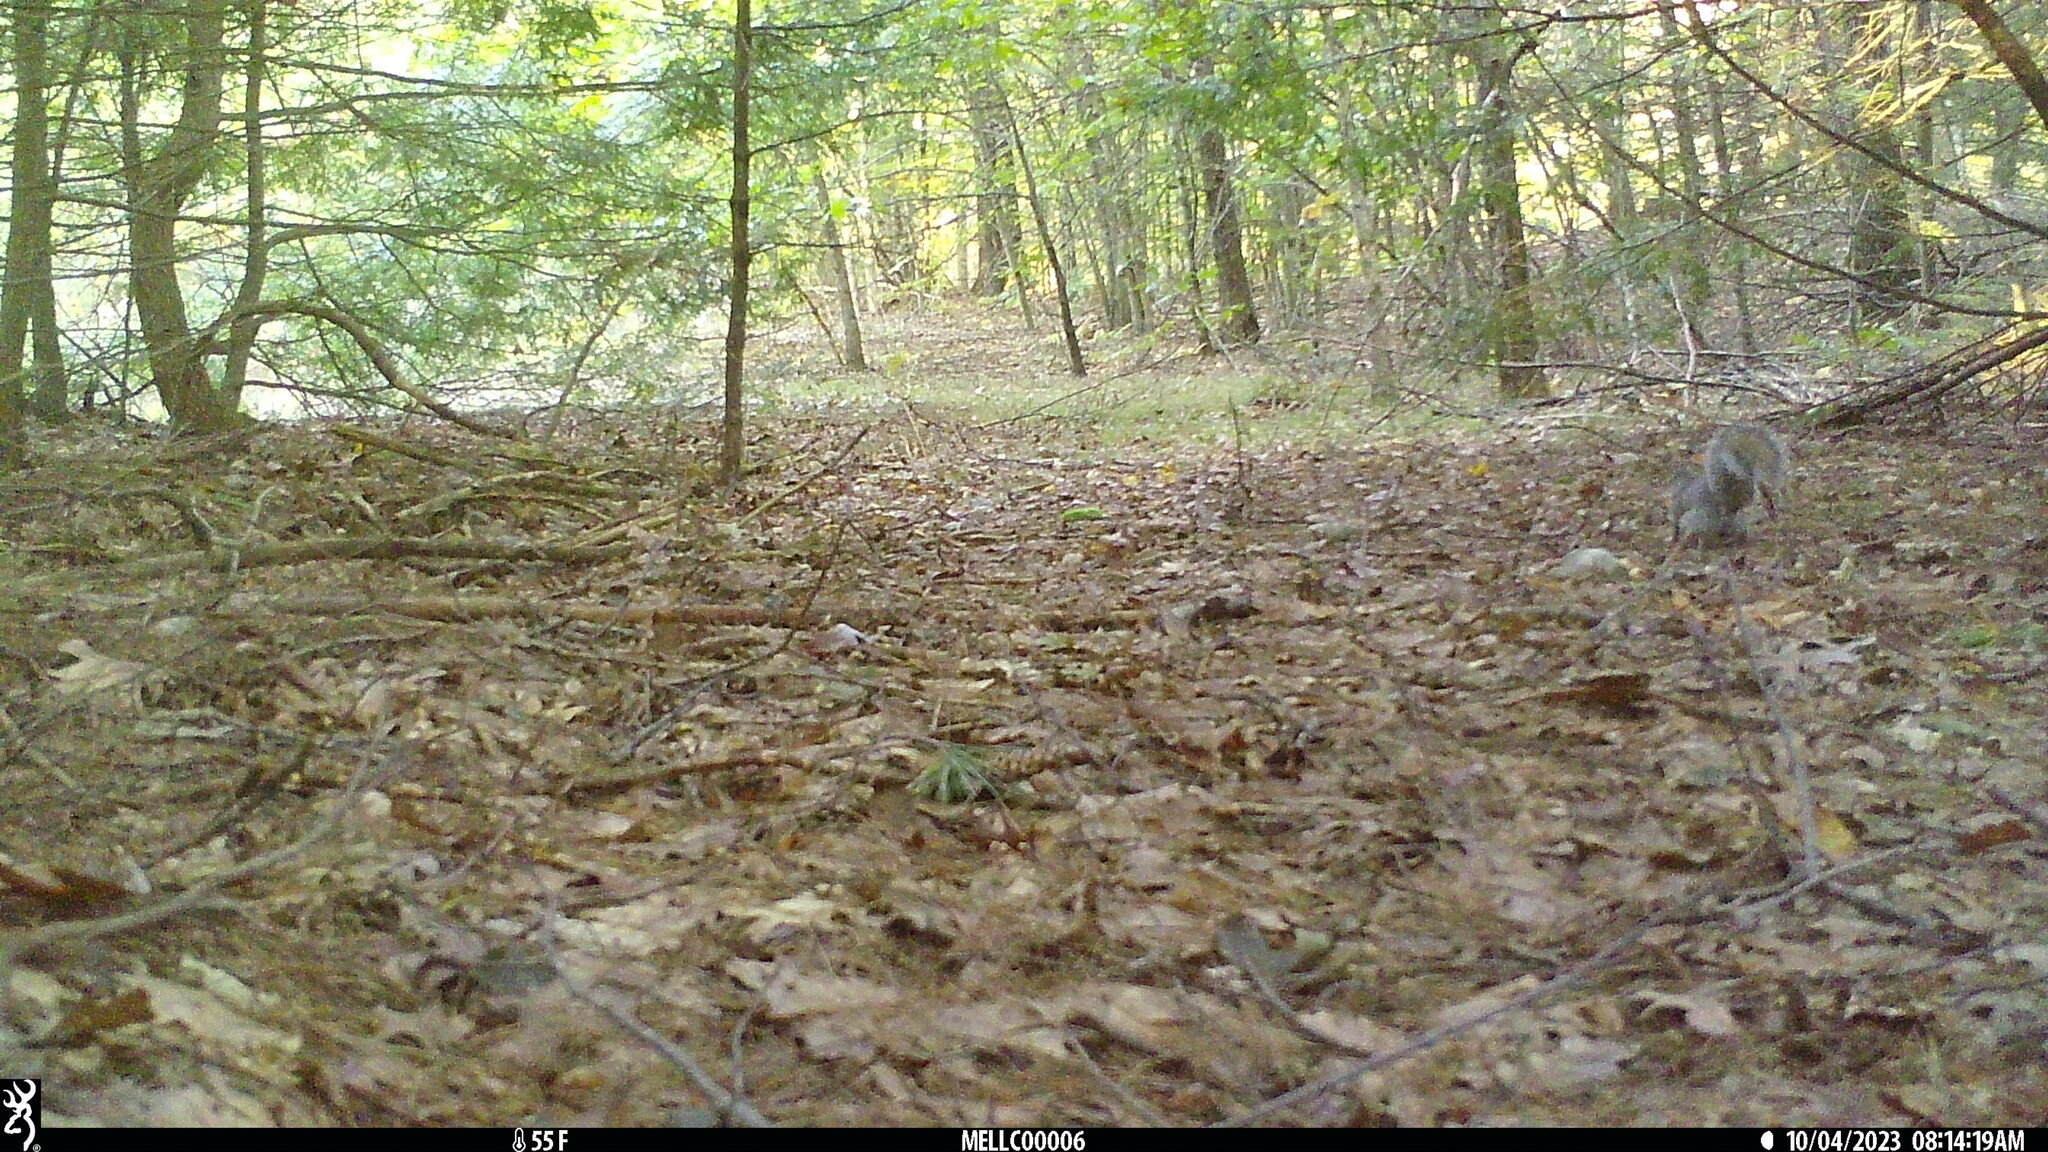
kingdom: Animalia
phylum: Chordata
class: Mammalia
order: Rodentia
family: Sciuridae
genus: Sciurus
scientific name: Sciurus carolinensis
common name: Eastern gray squirrel
